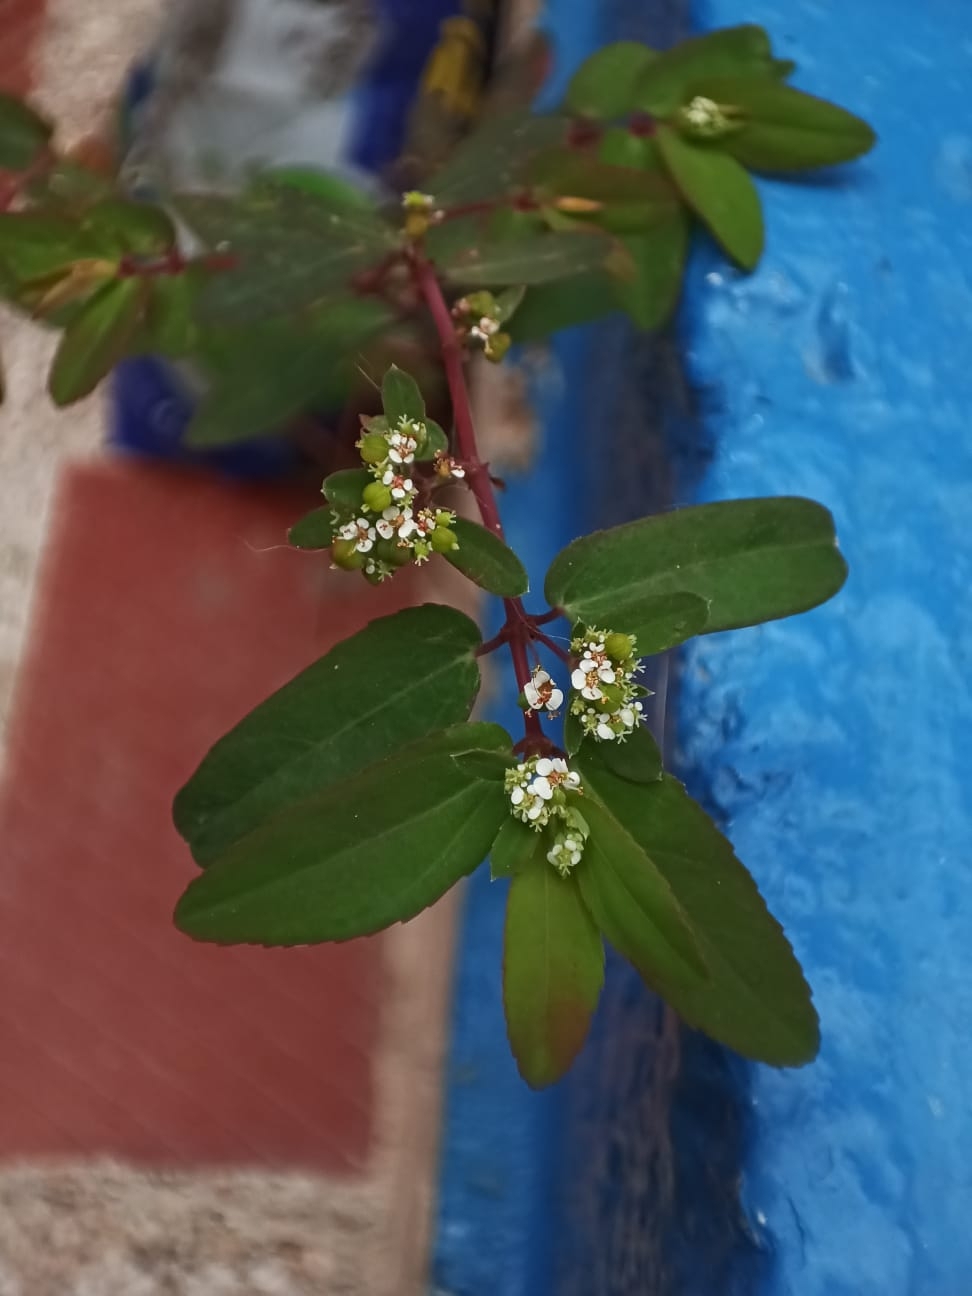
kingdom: Plantae
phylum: Tracheophyta
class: Magnoliopsida
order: Malpighiales
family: Euphorbiaceae
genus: Euphorbia
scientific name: Euphorbia hypericifolia
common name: Graceful sandmat
